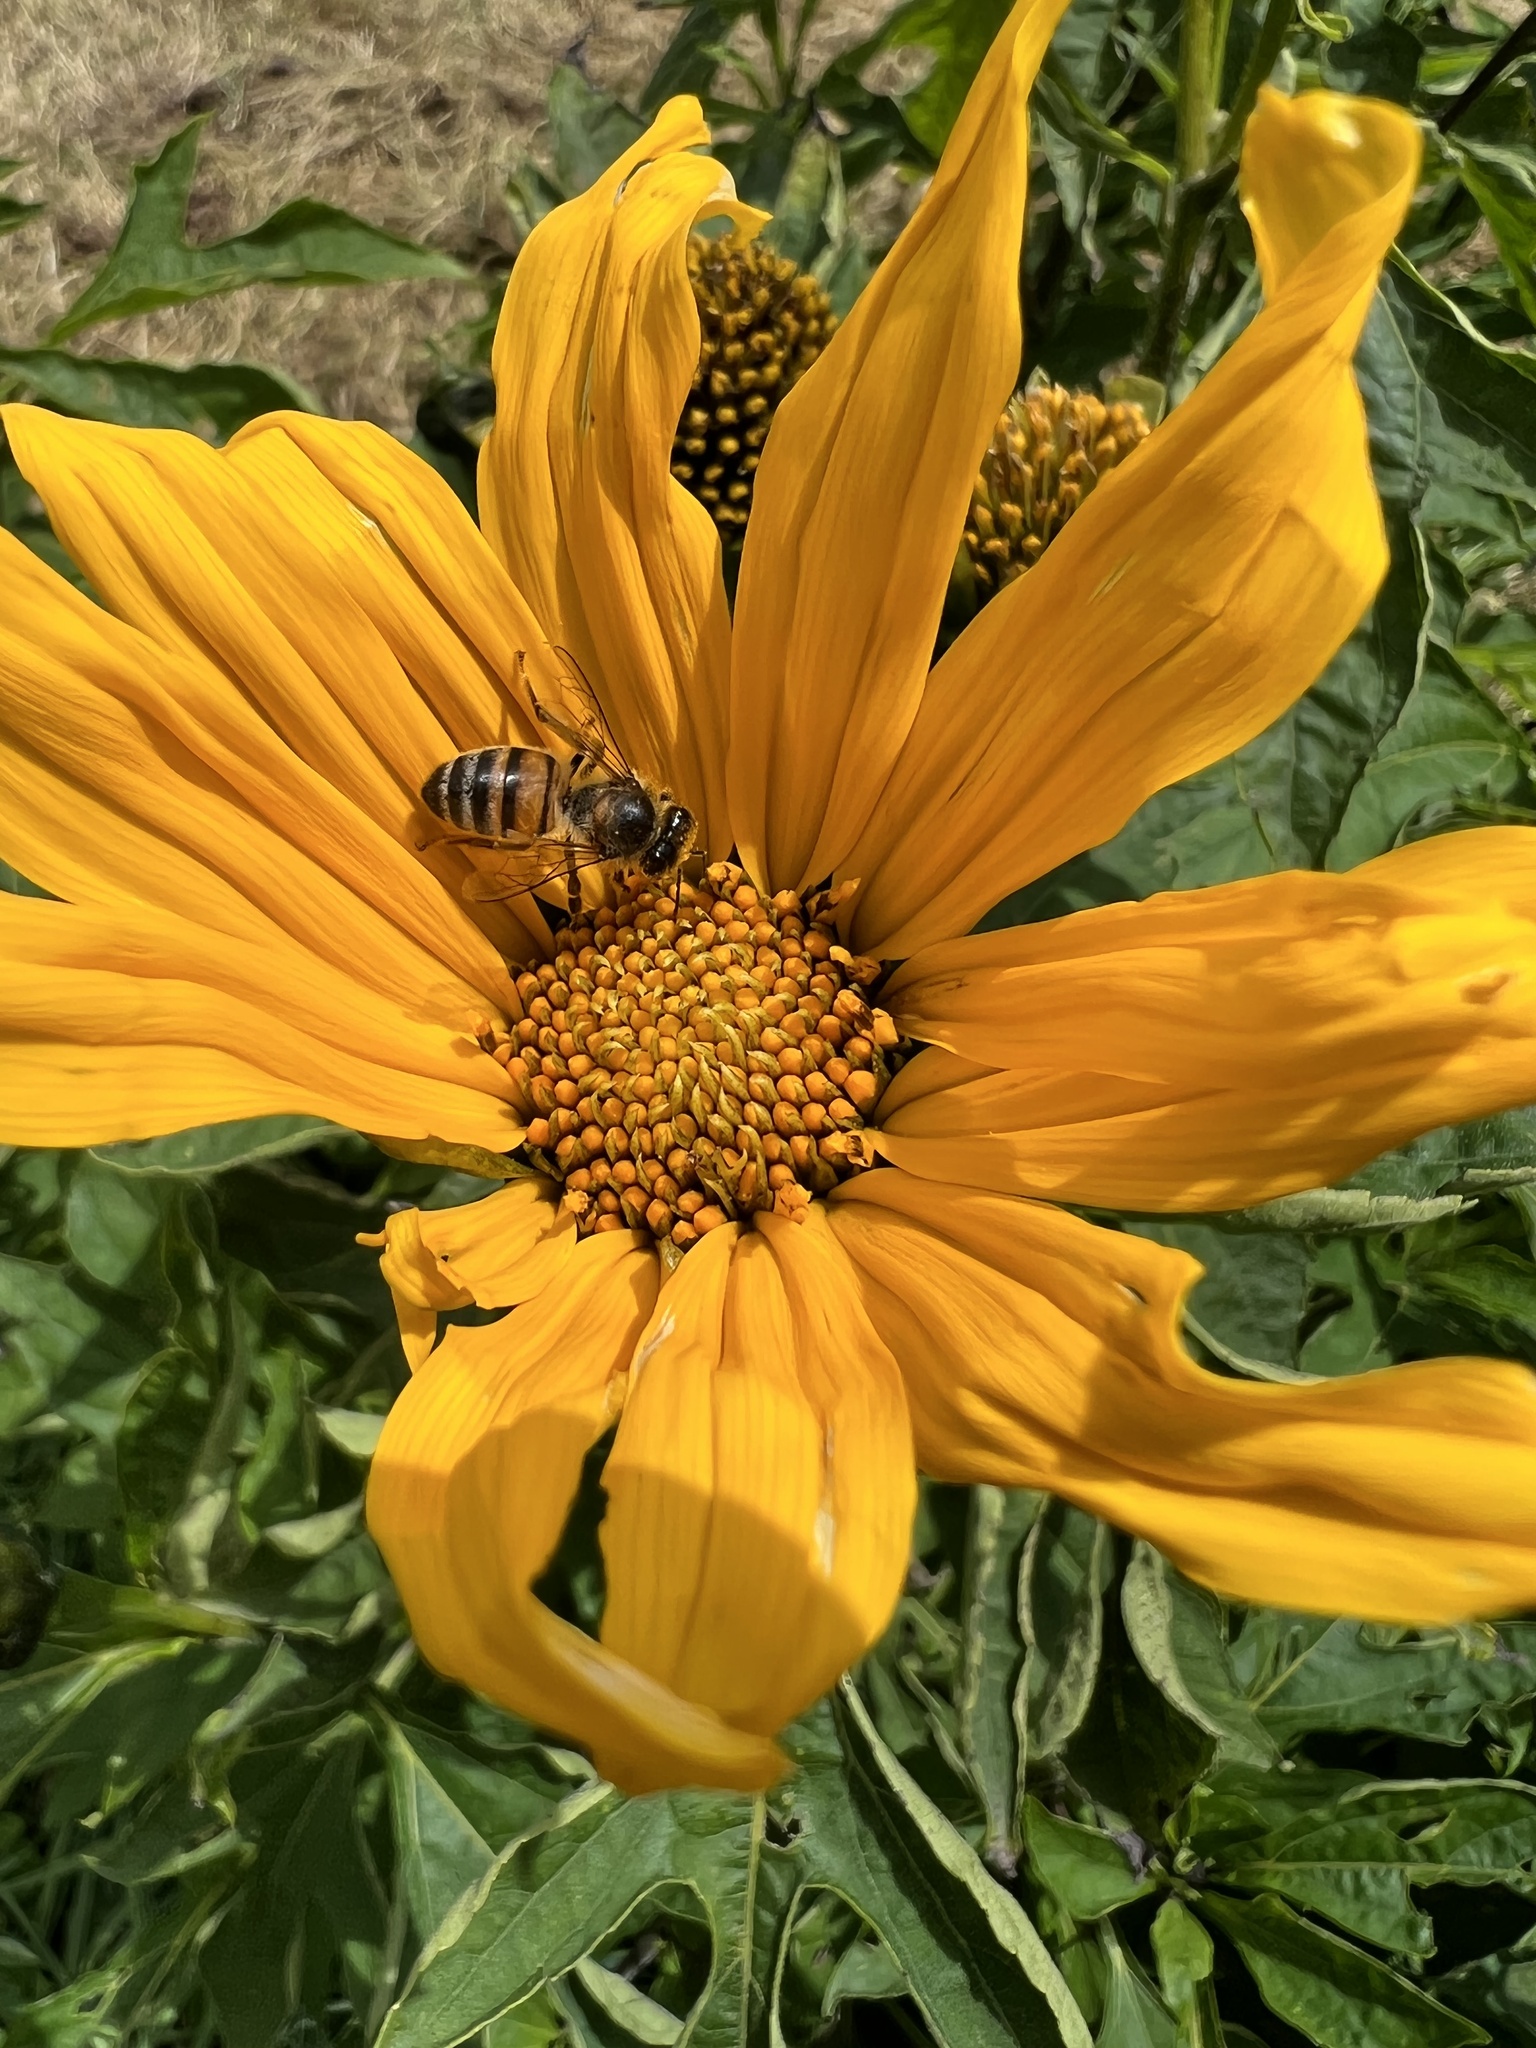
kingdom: Animalia
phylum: Arthropoda
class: Insecta
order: Hymenoptera
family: Apidae
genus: Apis
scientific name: Apis mellifera
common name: Honey bee
